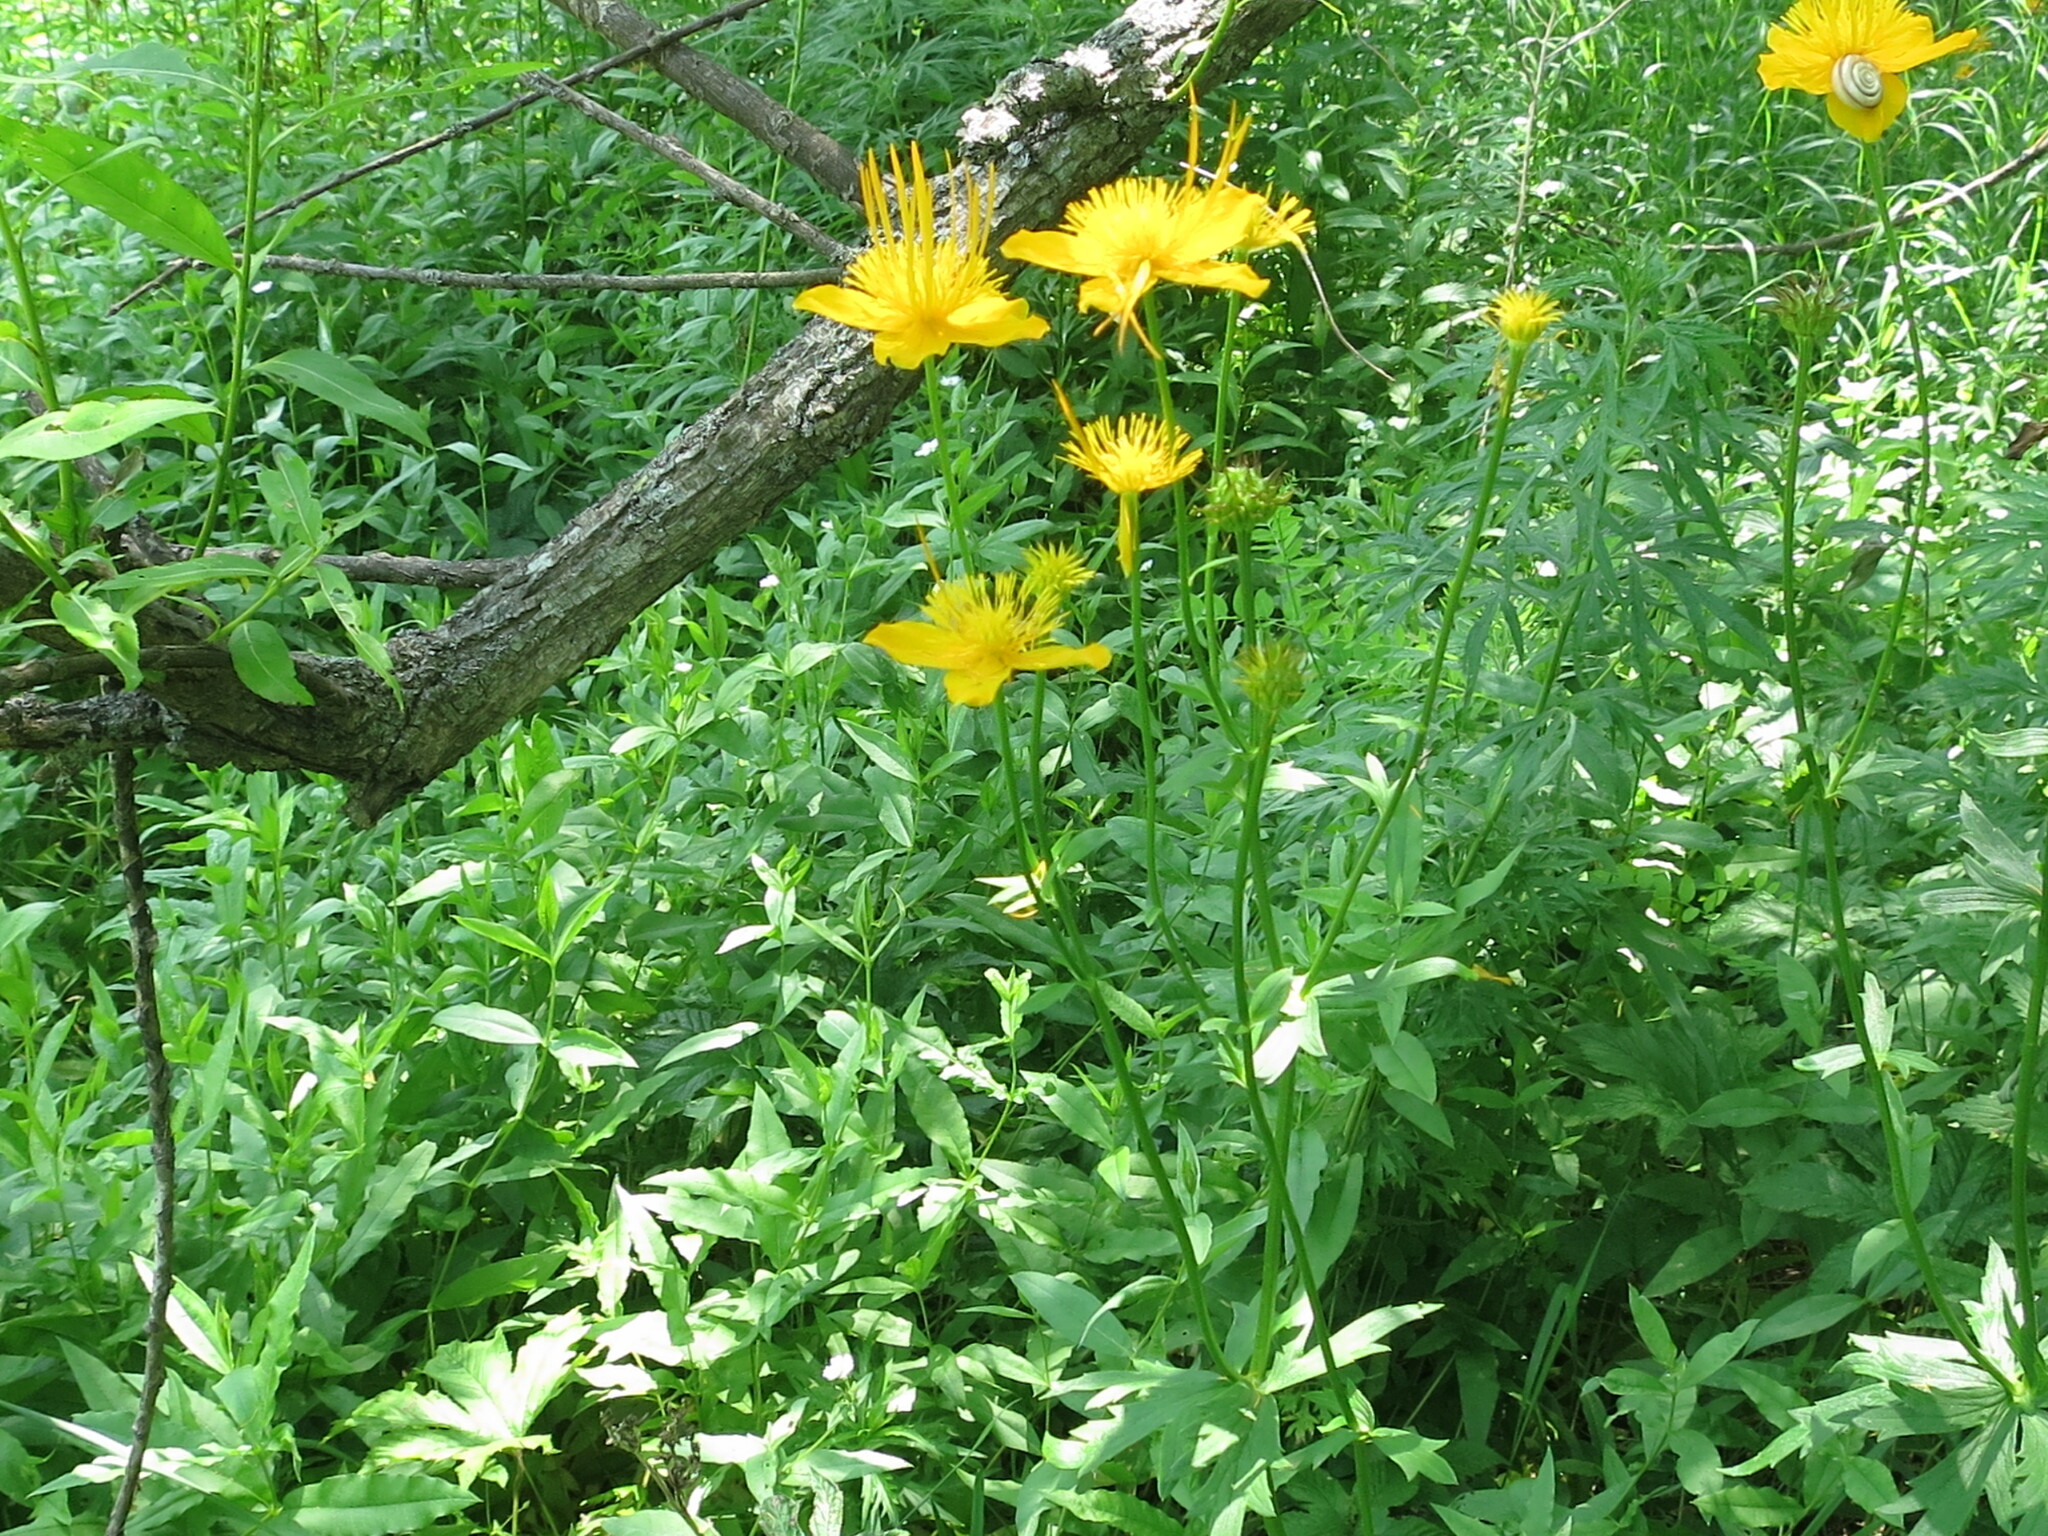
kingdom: Plantae
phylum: Tracheophyta
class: Magnoliopsida
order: Ranunculales
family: Ranunculaceae
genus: Trollius
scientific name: Trollius chinensis
